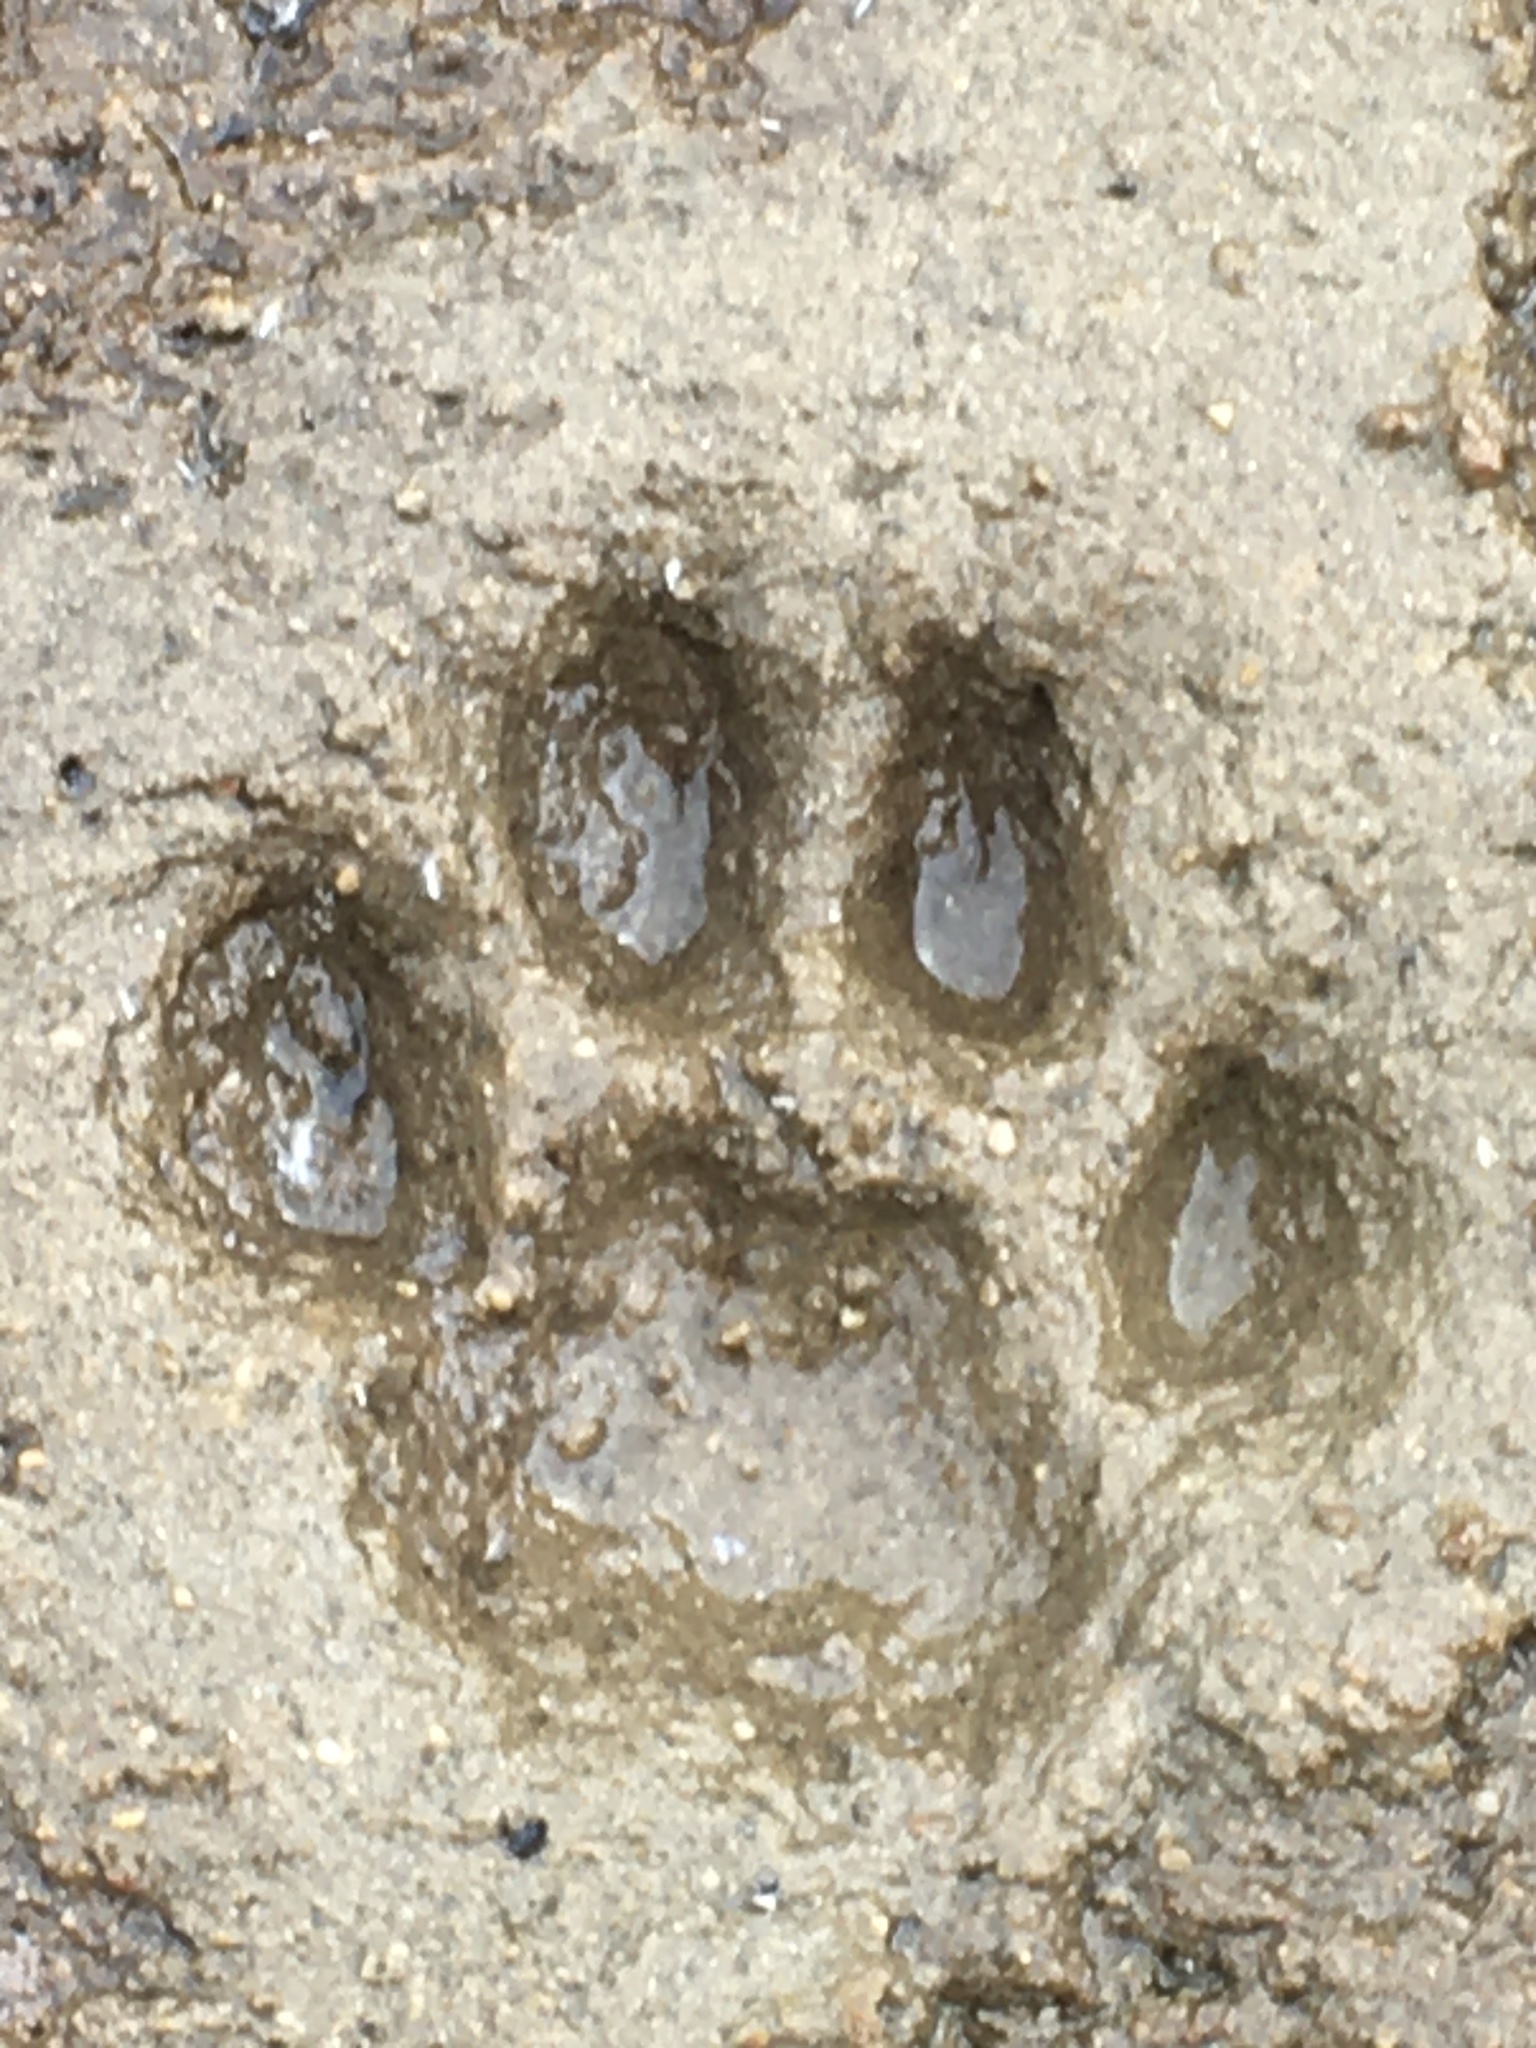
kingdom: Animalia
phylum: Chordata
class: Mammalia
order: Carnivora
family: Felidae
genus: Lynx
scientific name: Lynx rufus
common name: Bobcat
